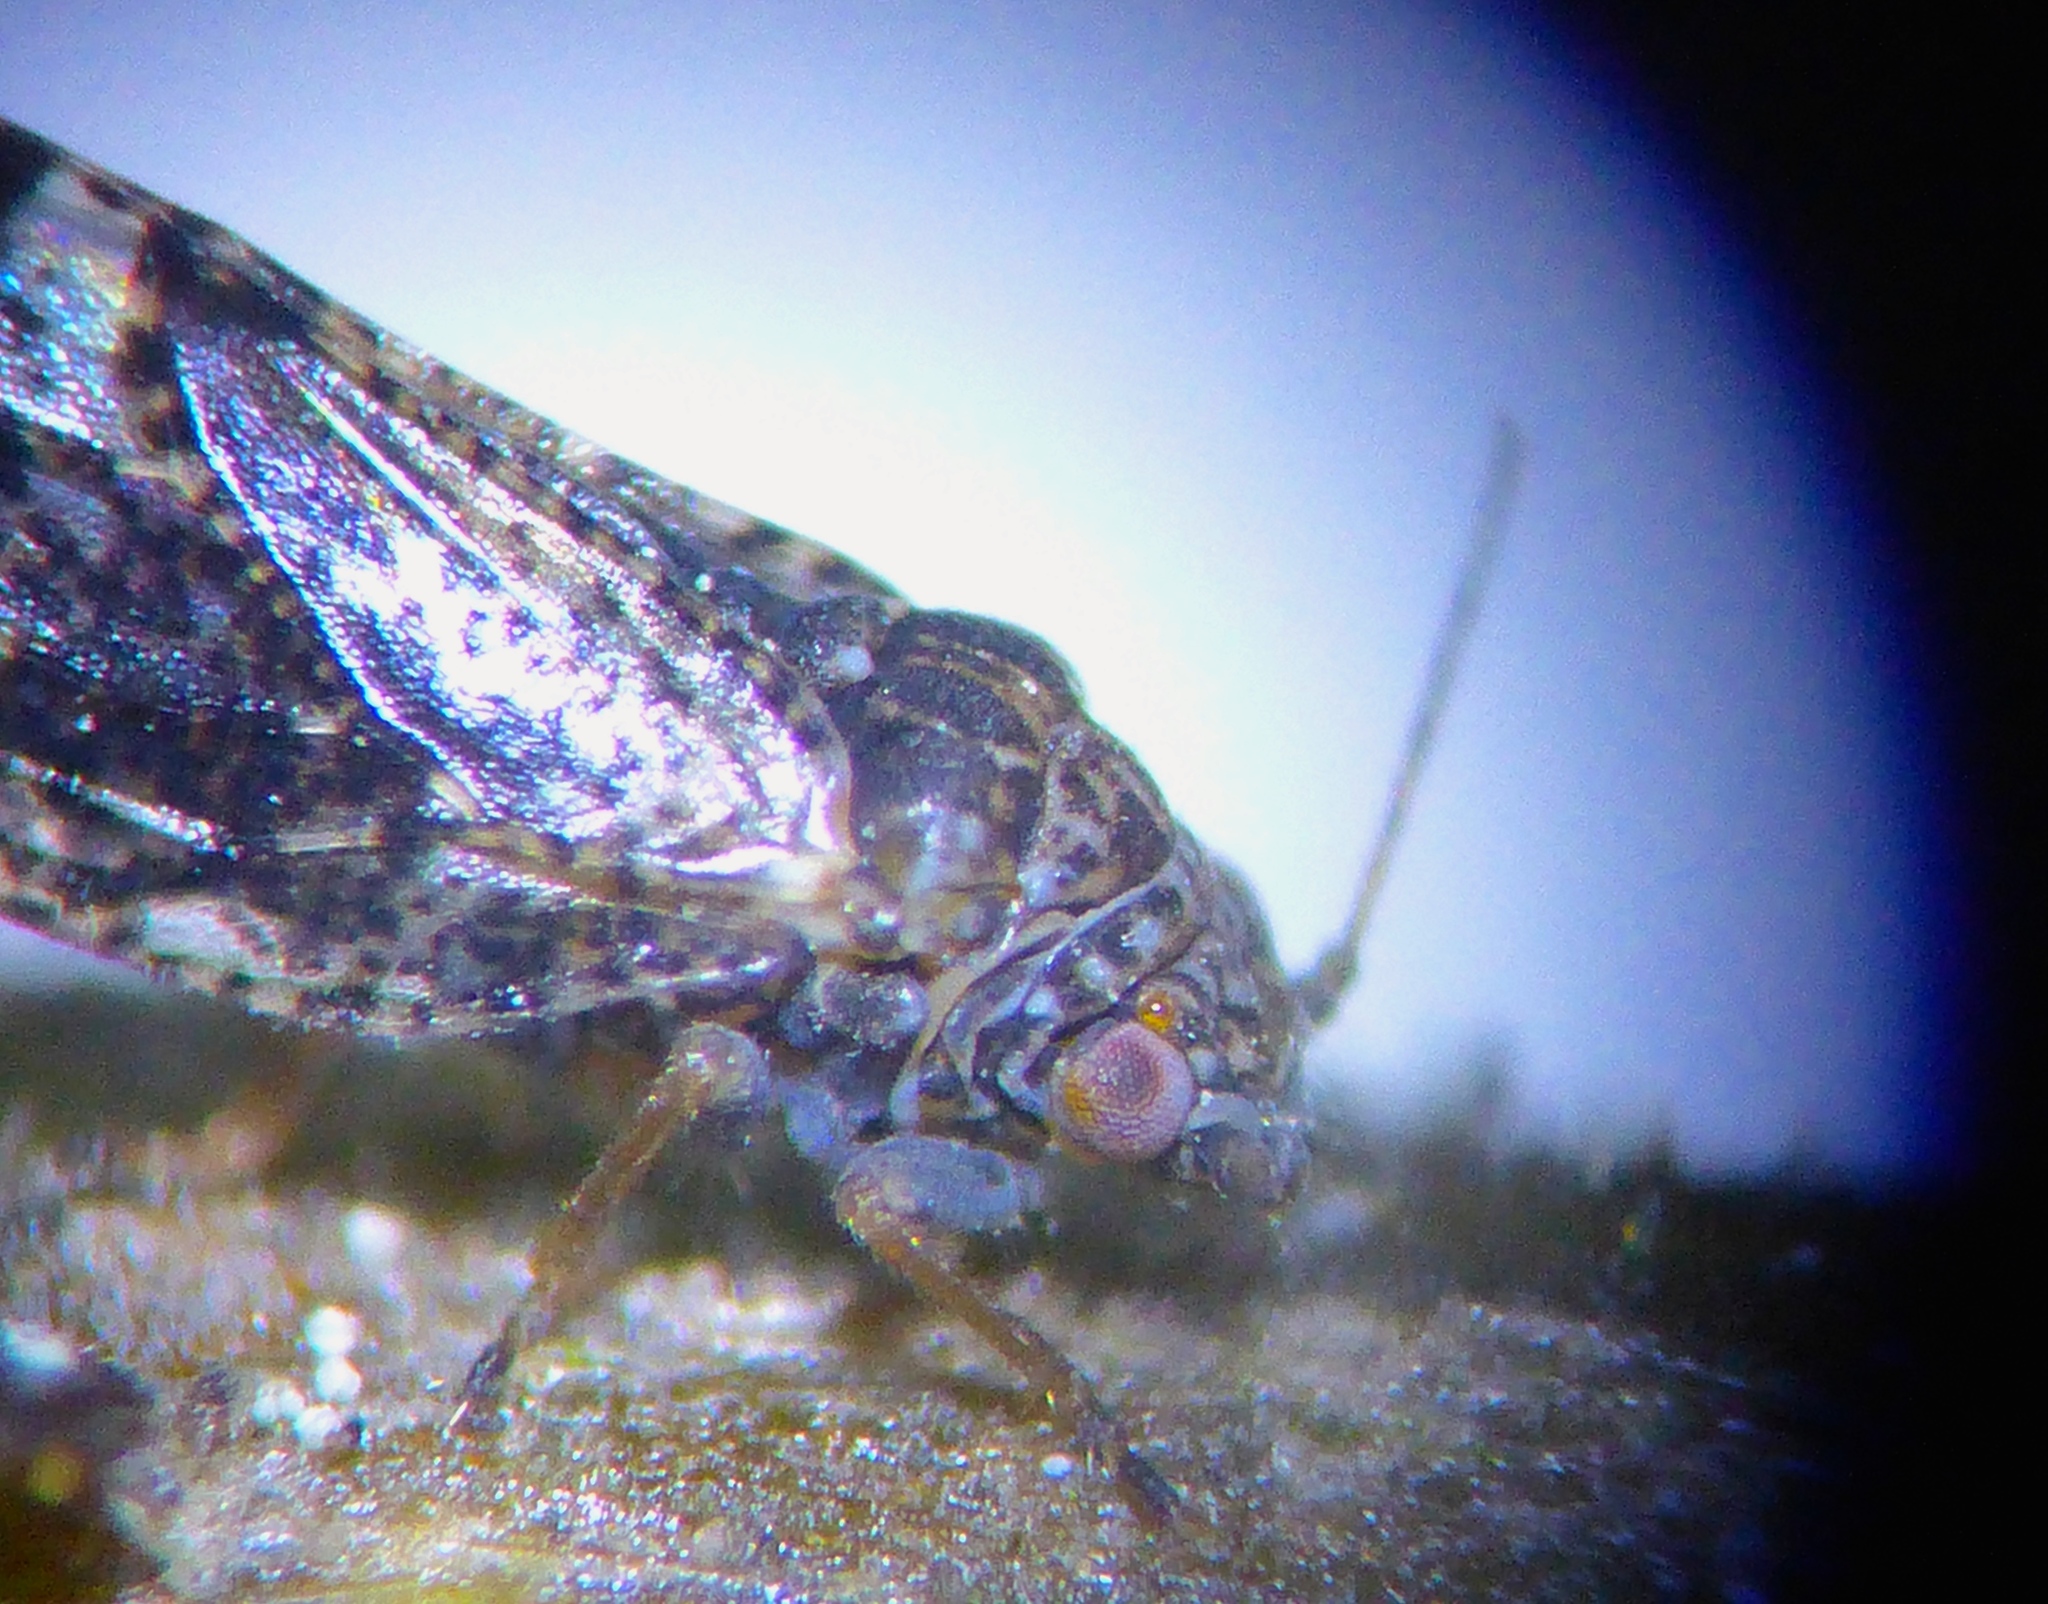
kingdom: Animalia
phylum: Arthropoda
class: Insecta
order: Hemiptera
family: Psyllidae
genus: Acizzia
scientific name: Acizzia apicalis
